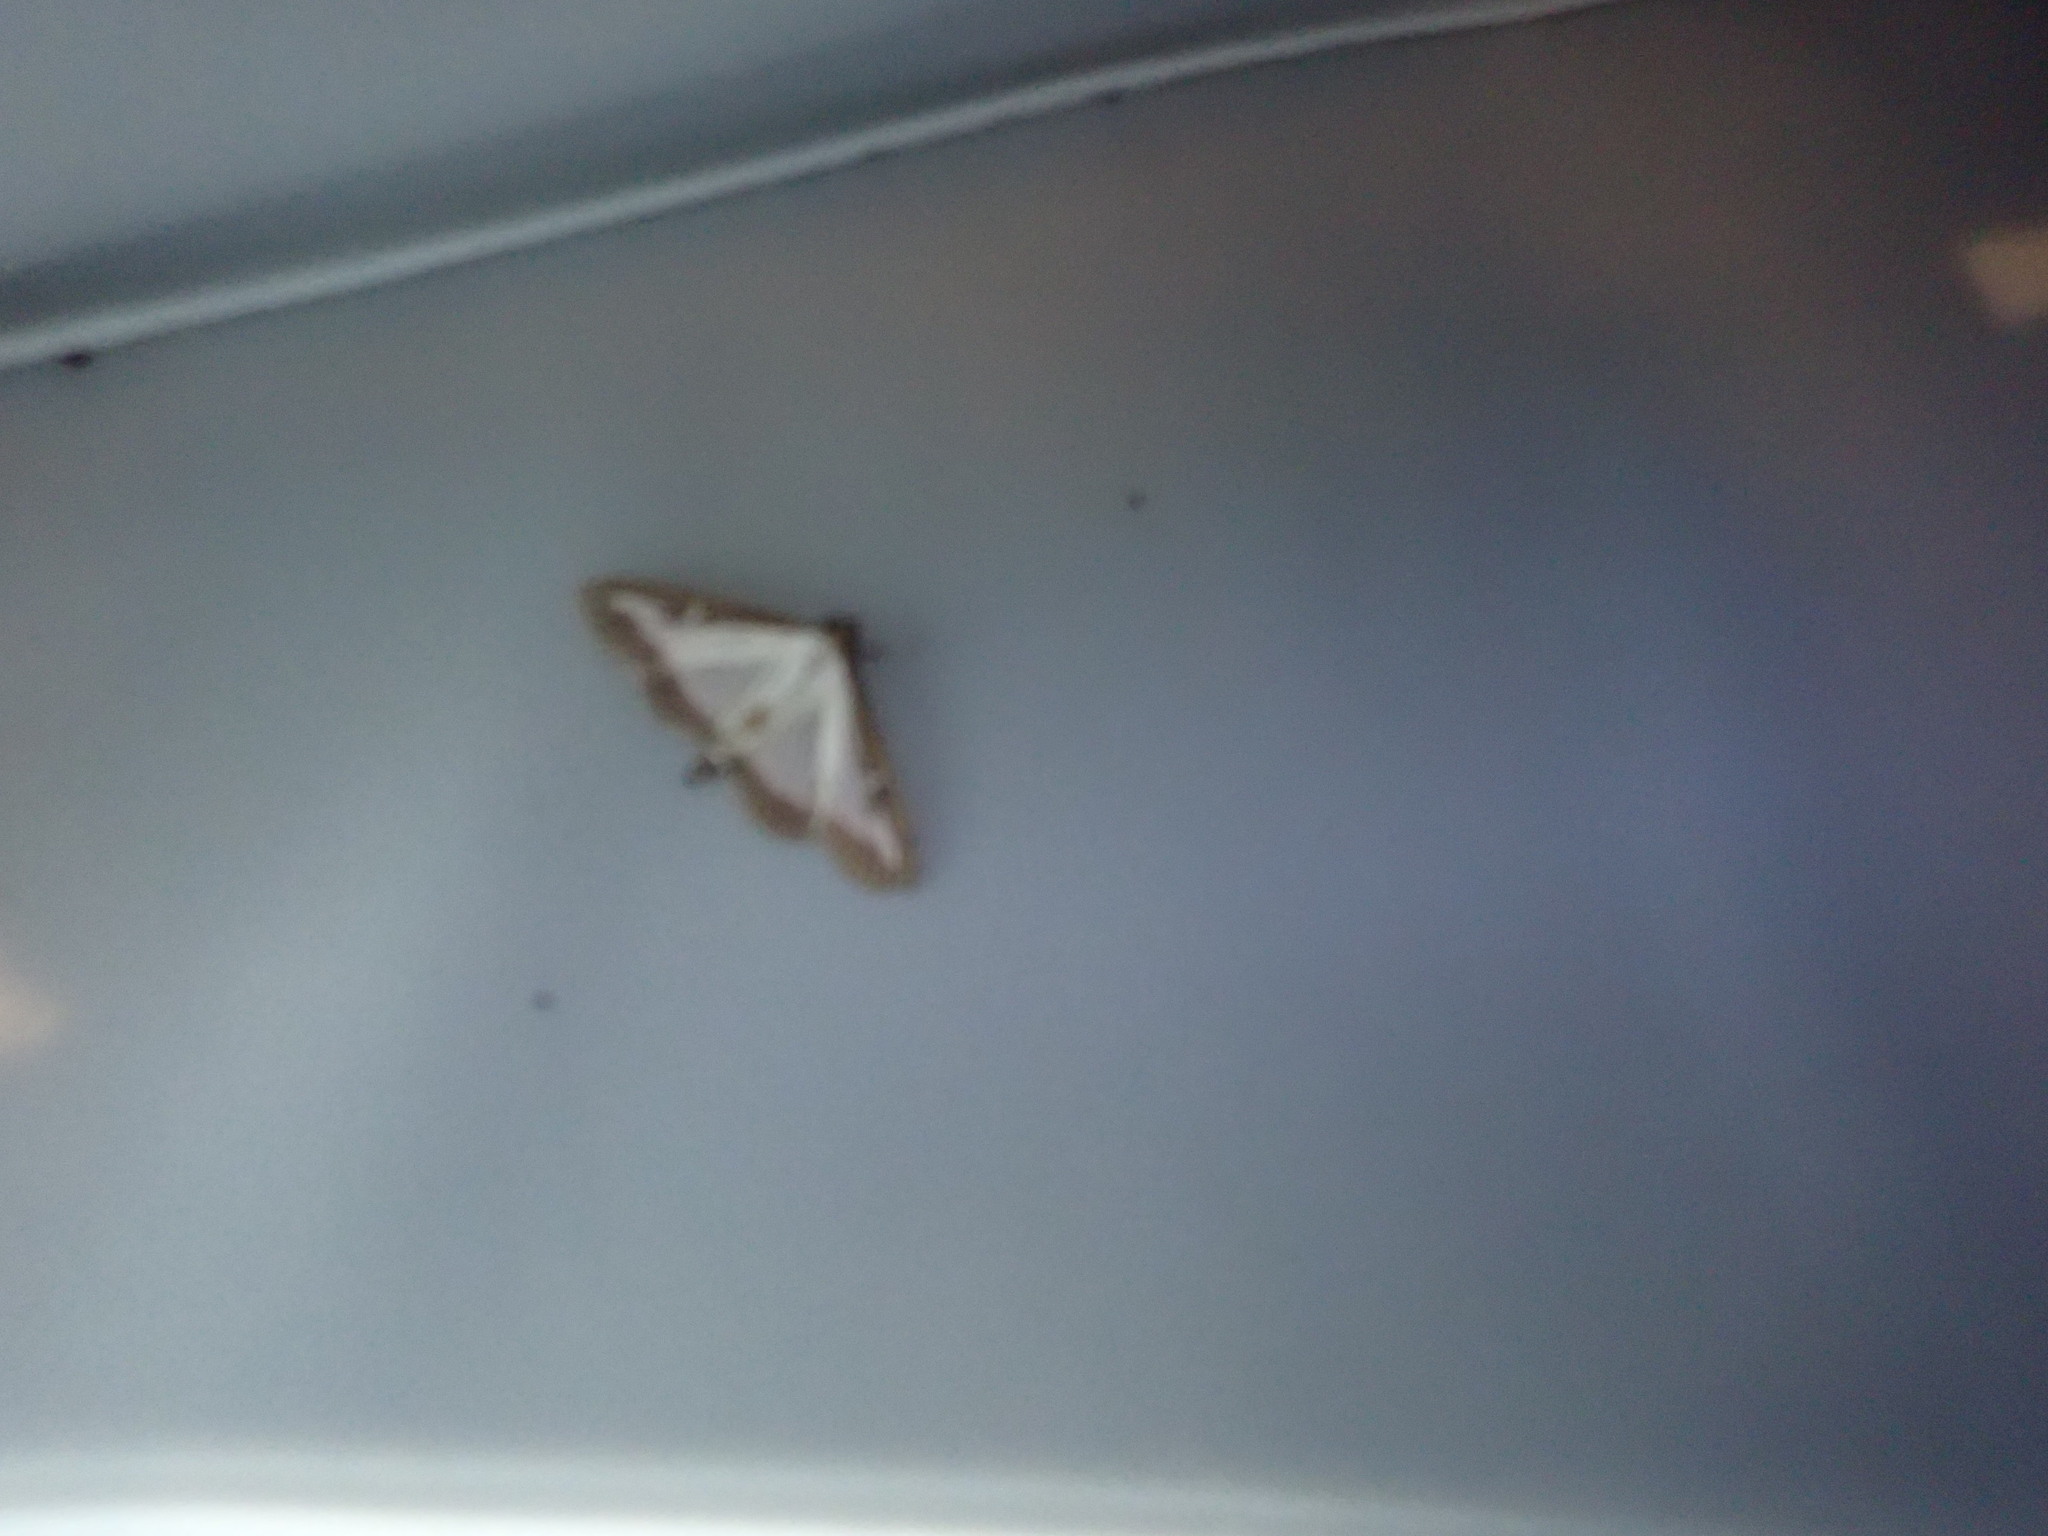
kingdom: Animalia
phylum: Arthropoda
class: Insecta
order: Lepidoptera
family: Crambidae
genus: Cydalima
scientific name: Cydalima perspectalis
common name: Box tree moth
